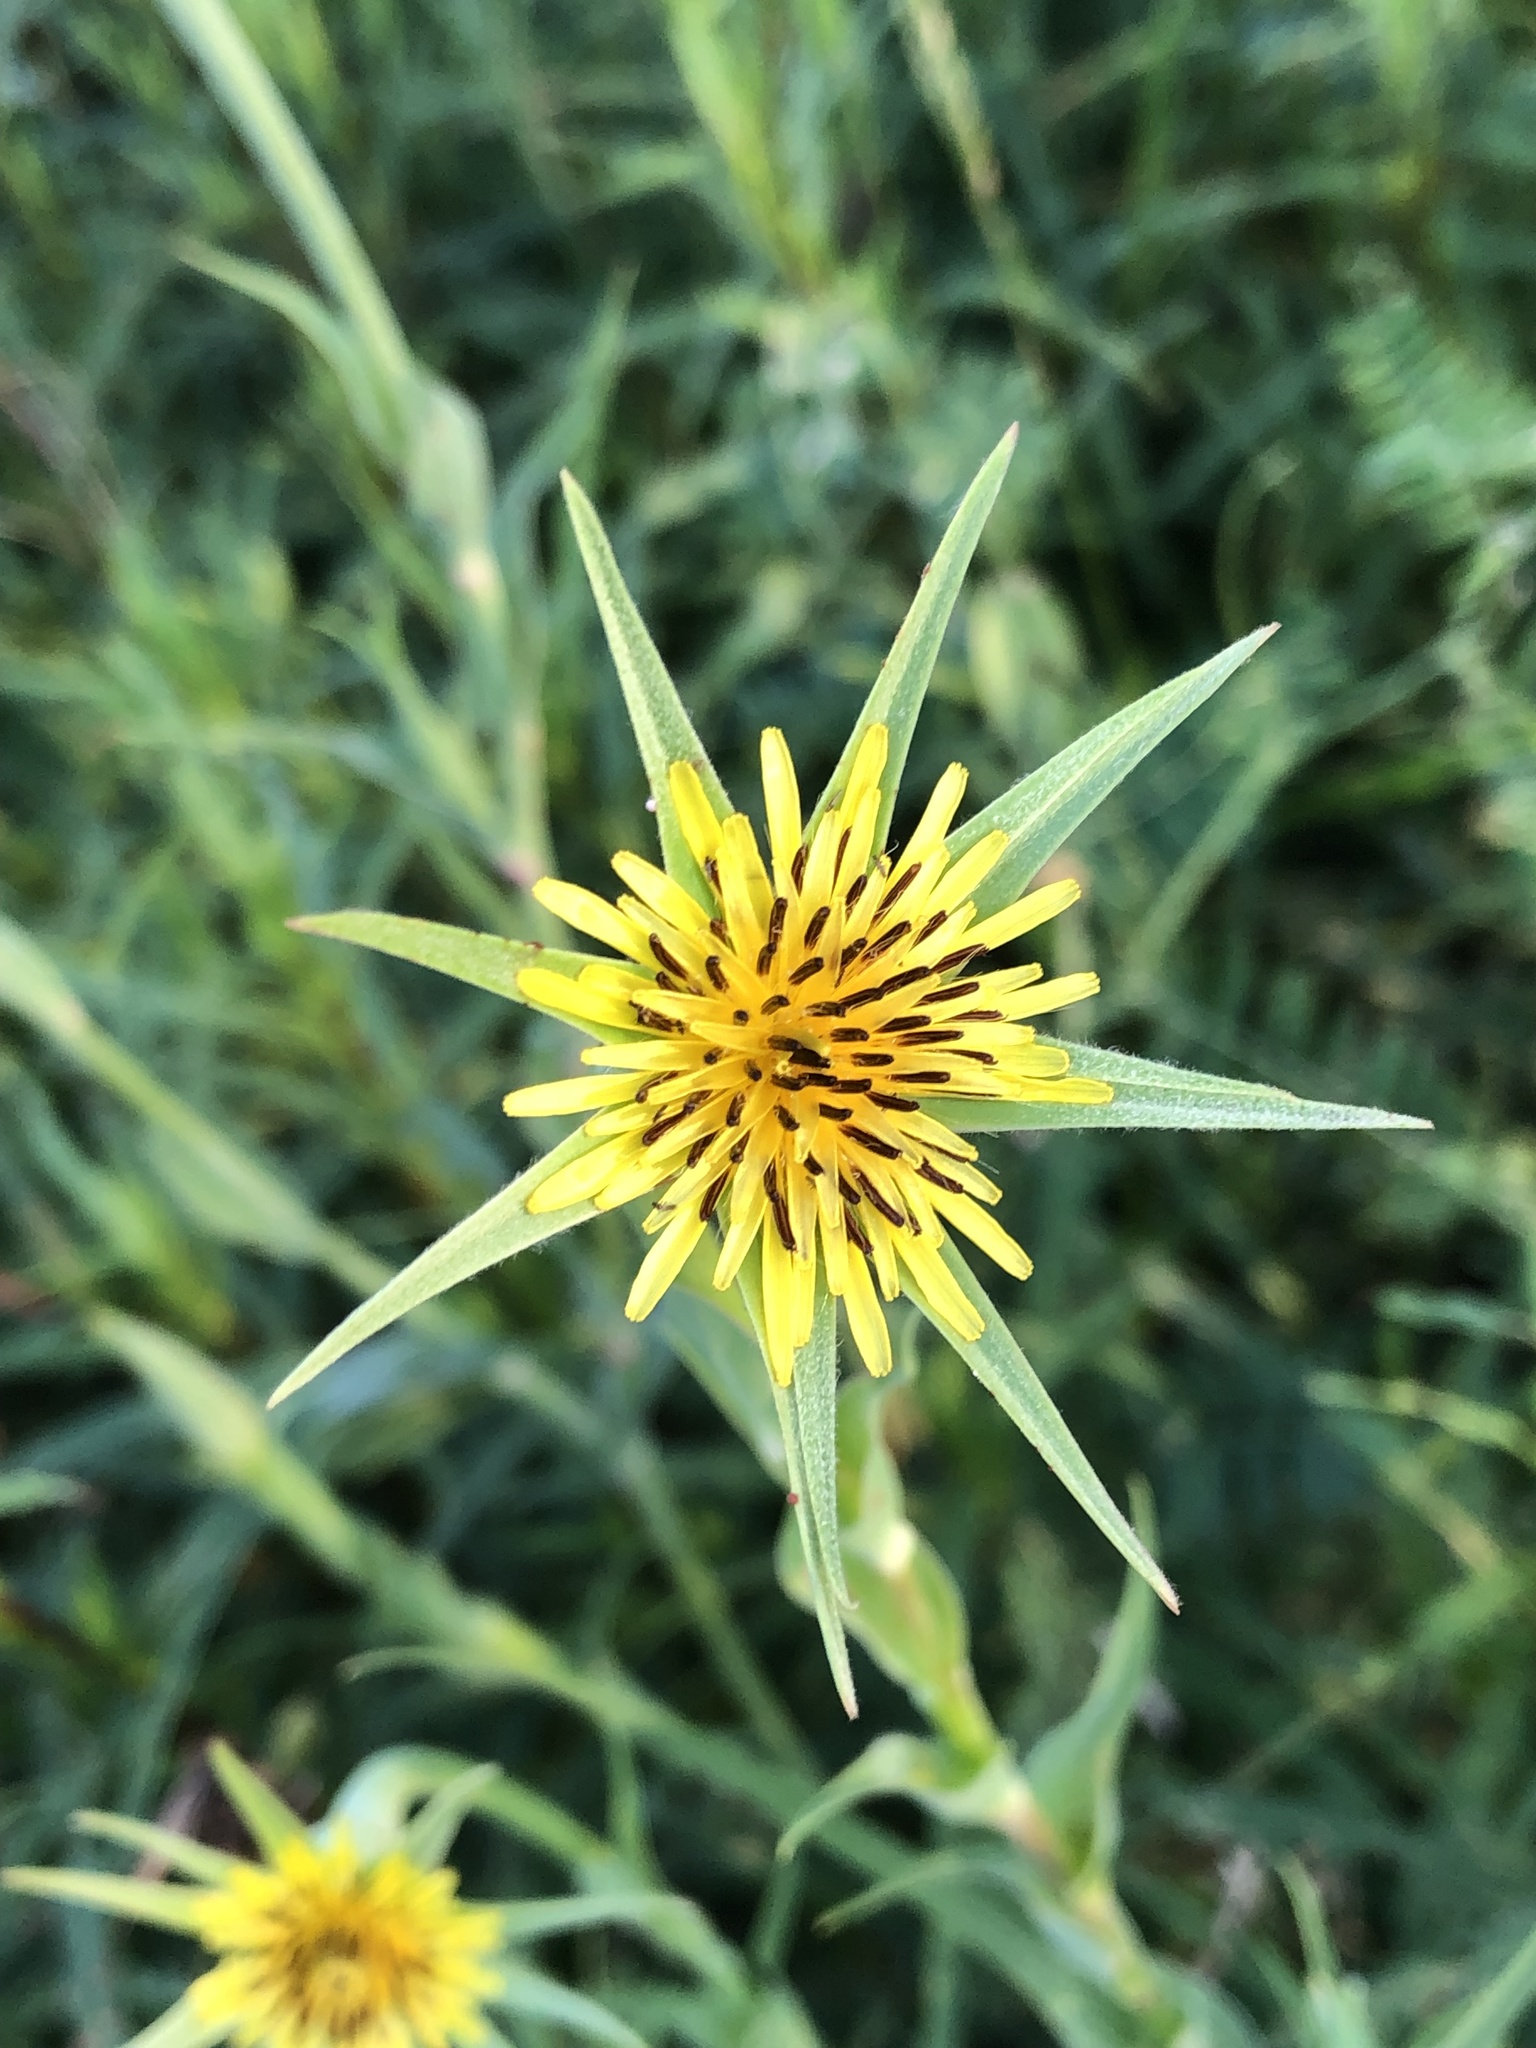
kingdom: Plantae
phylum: Tracheophyta
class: Magnoliopsida
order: Asterales
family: Asteraceae
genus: Tragopogon
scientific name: Tragopogon dubius
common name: Yellow salsify
